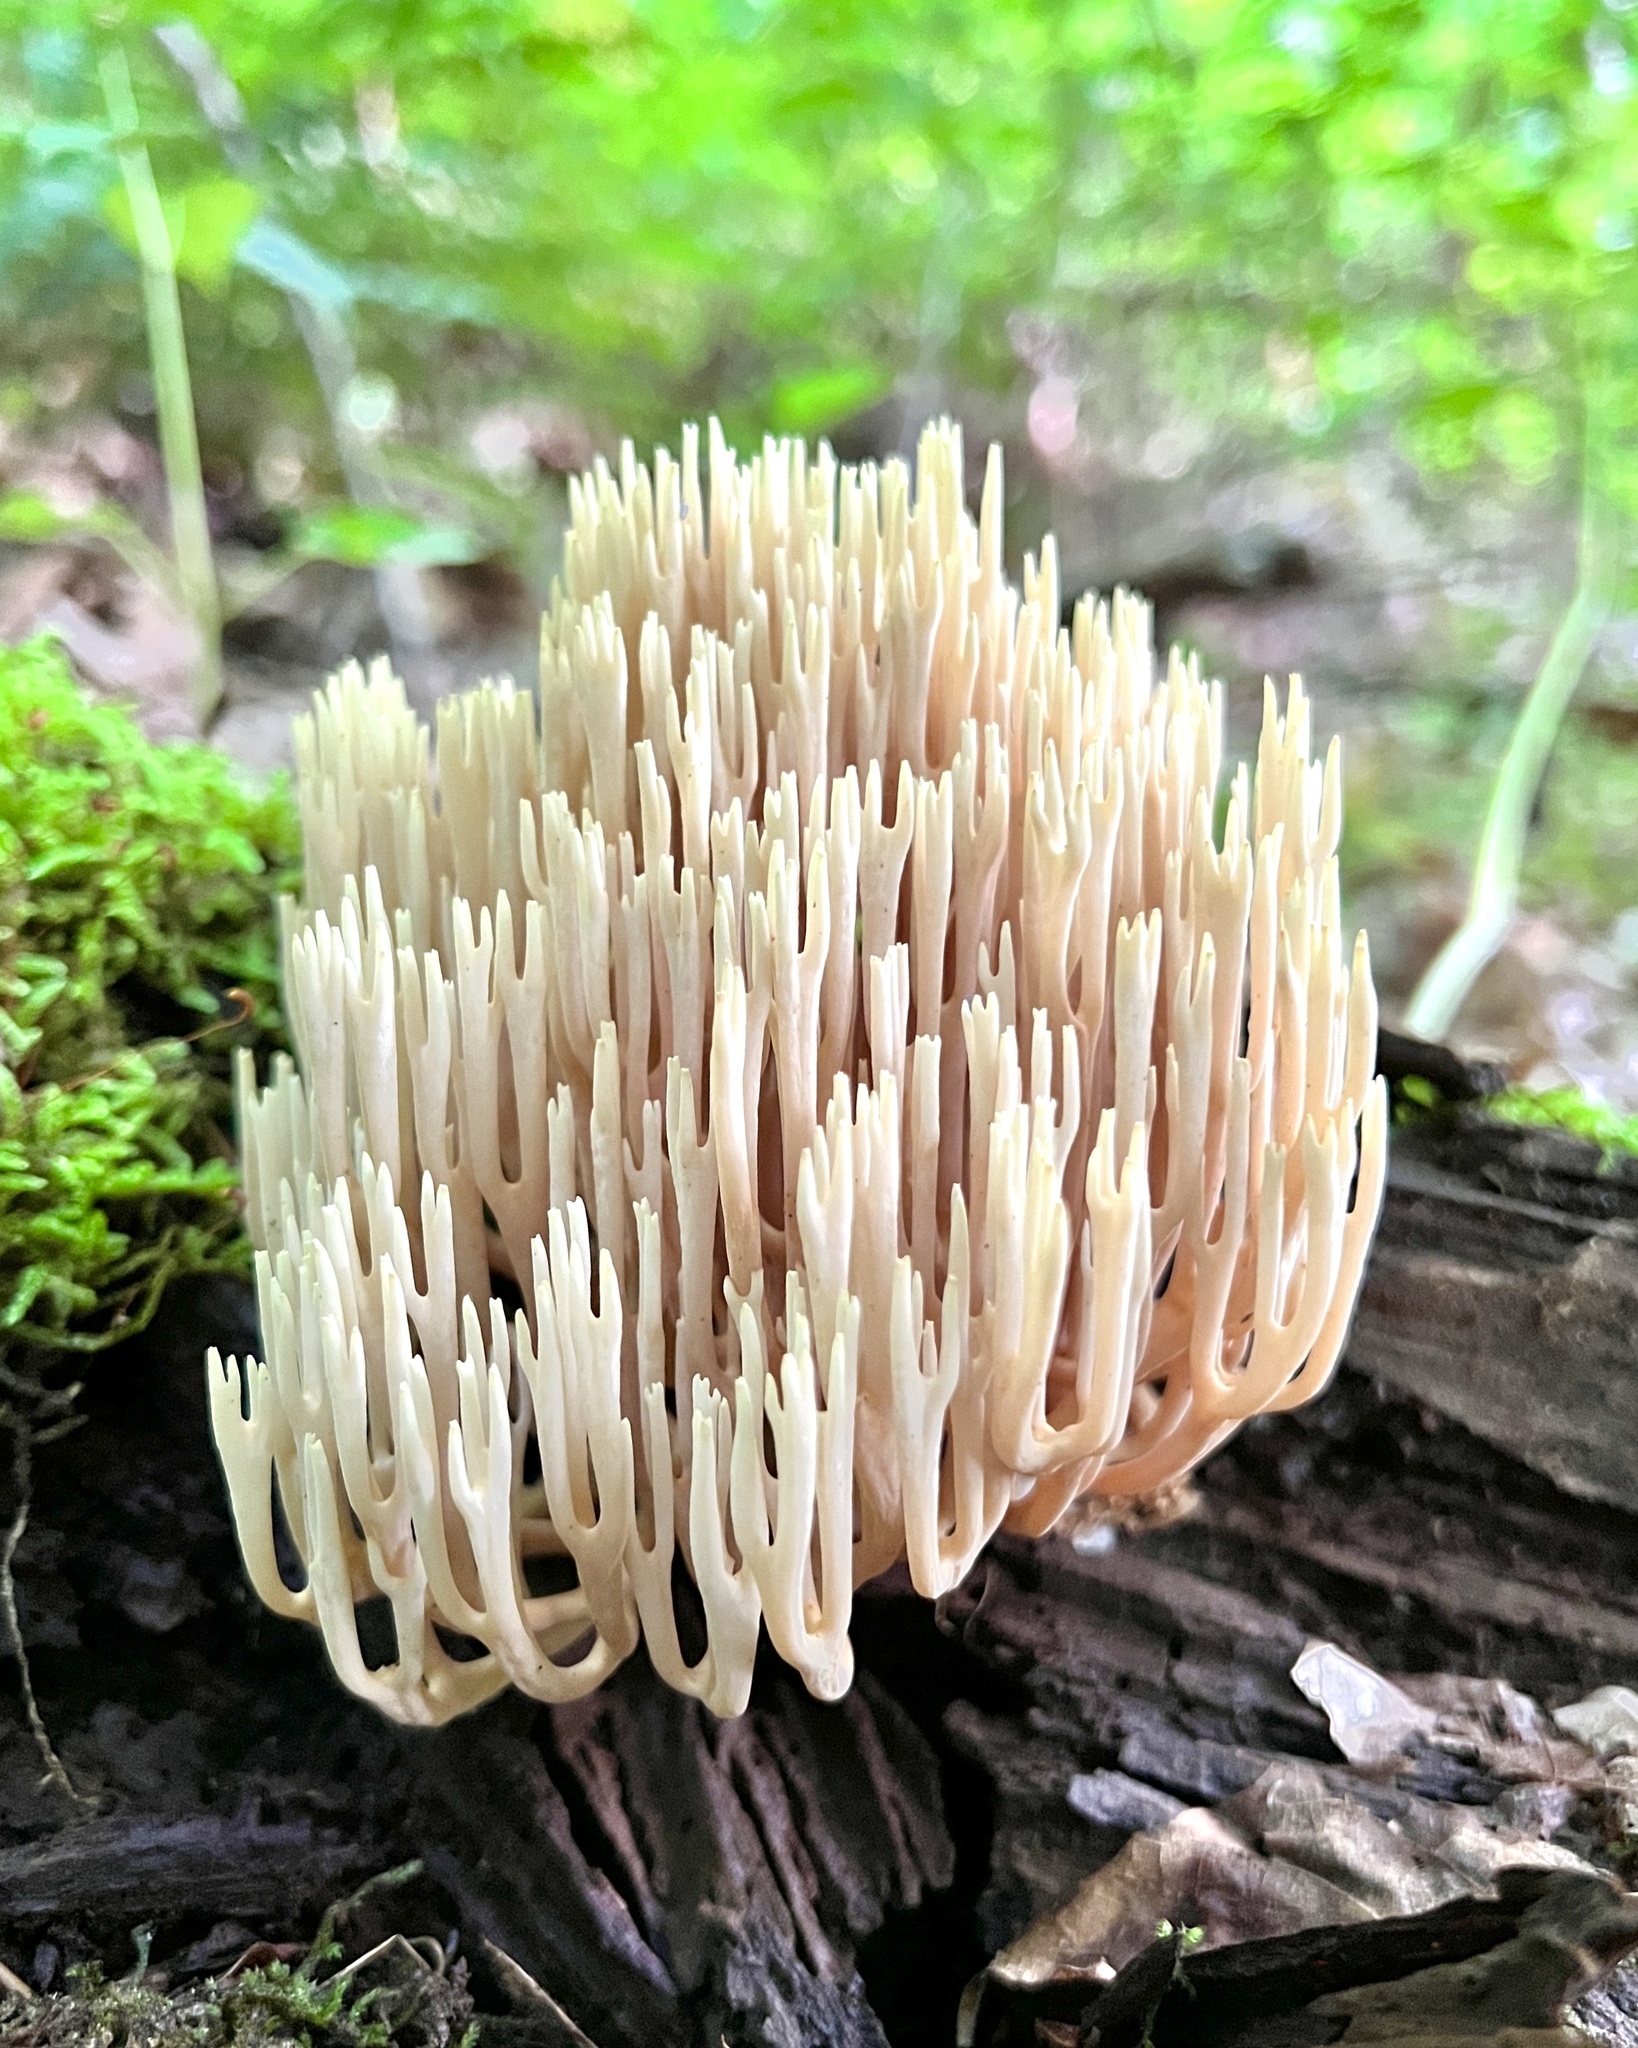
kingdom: Fungi
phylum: Basidiomycota
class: Agaricomycetes
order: Gomphales
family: Gomphaceae
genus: Ramaria
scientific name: Ramaria stricta
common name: Upright coral
